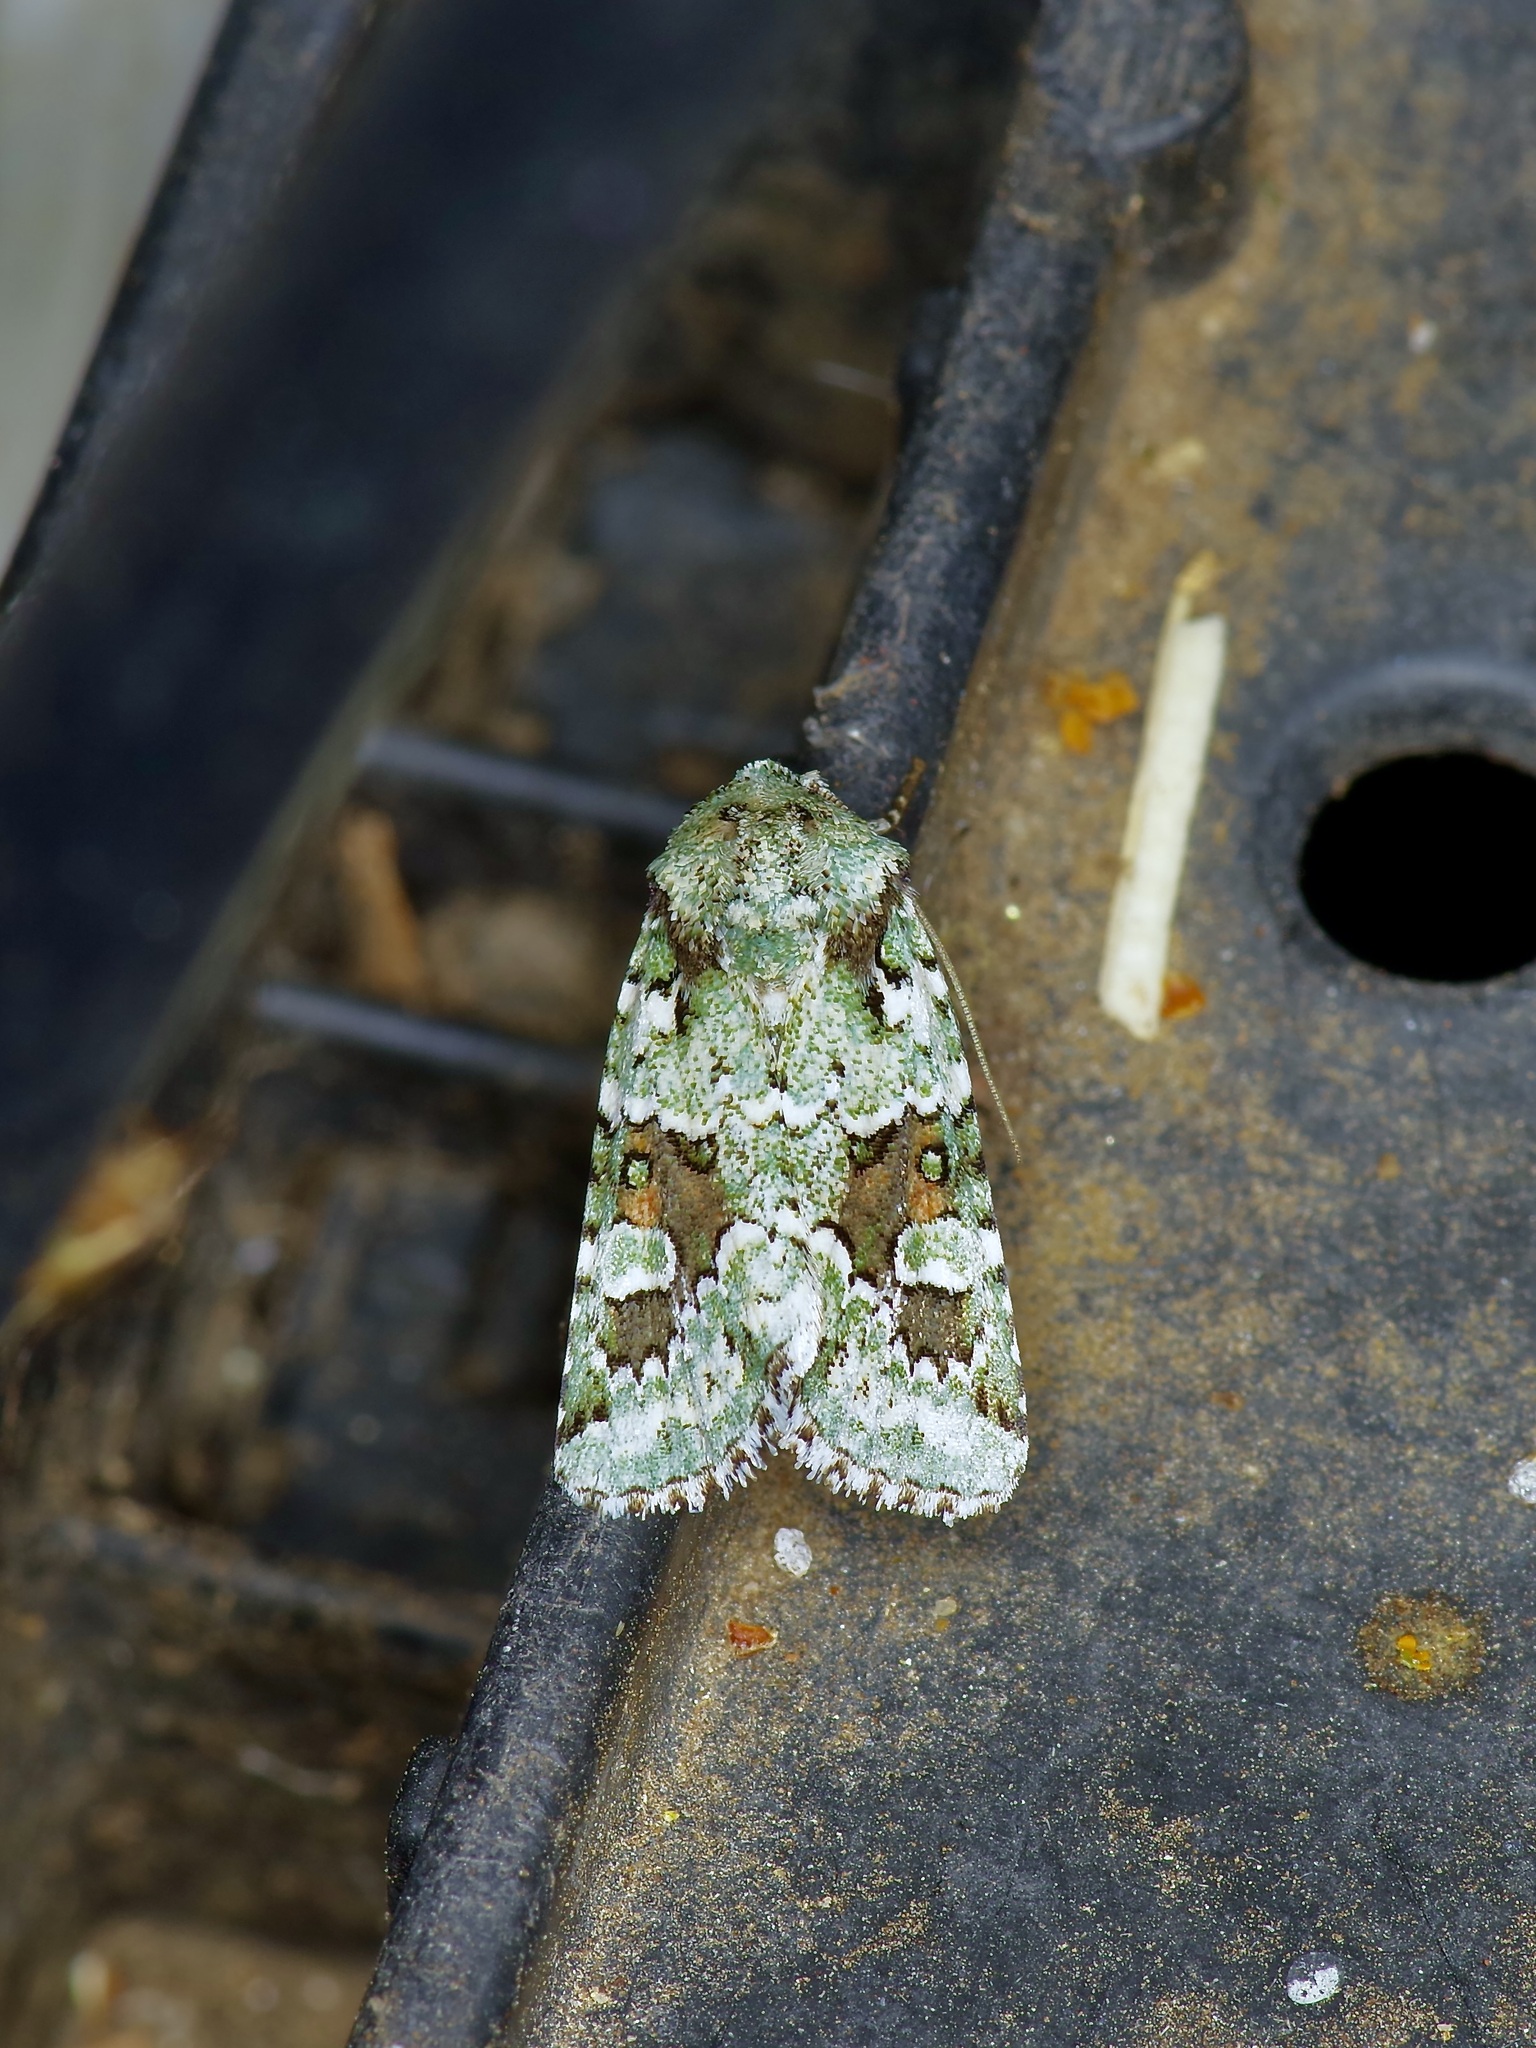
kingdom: Animalia
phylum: Arthropoda
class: Insecta
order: Lepidoptera
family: Noctuidae
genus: Lacinipolia
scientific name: Lacinipolia laudabilis
